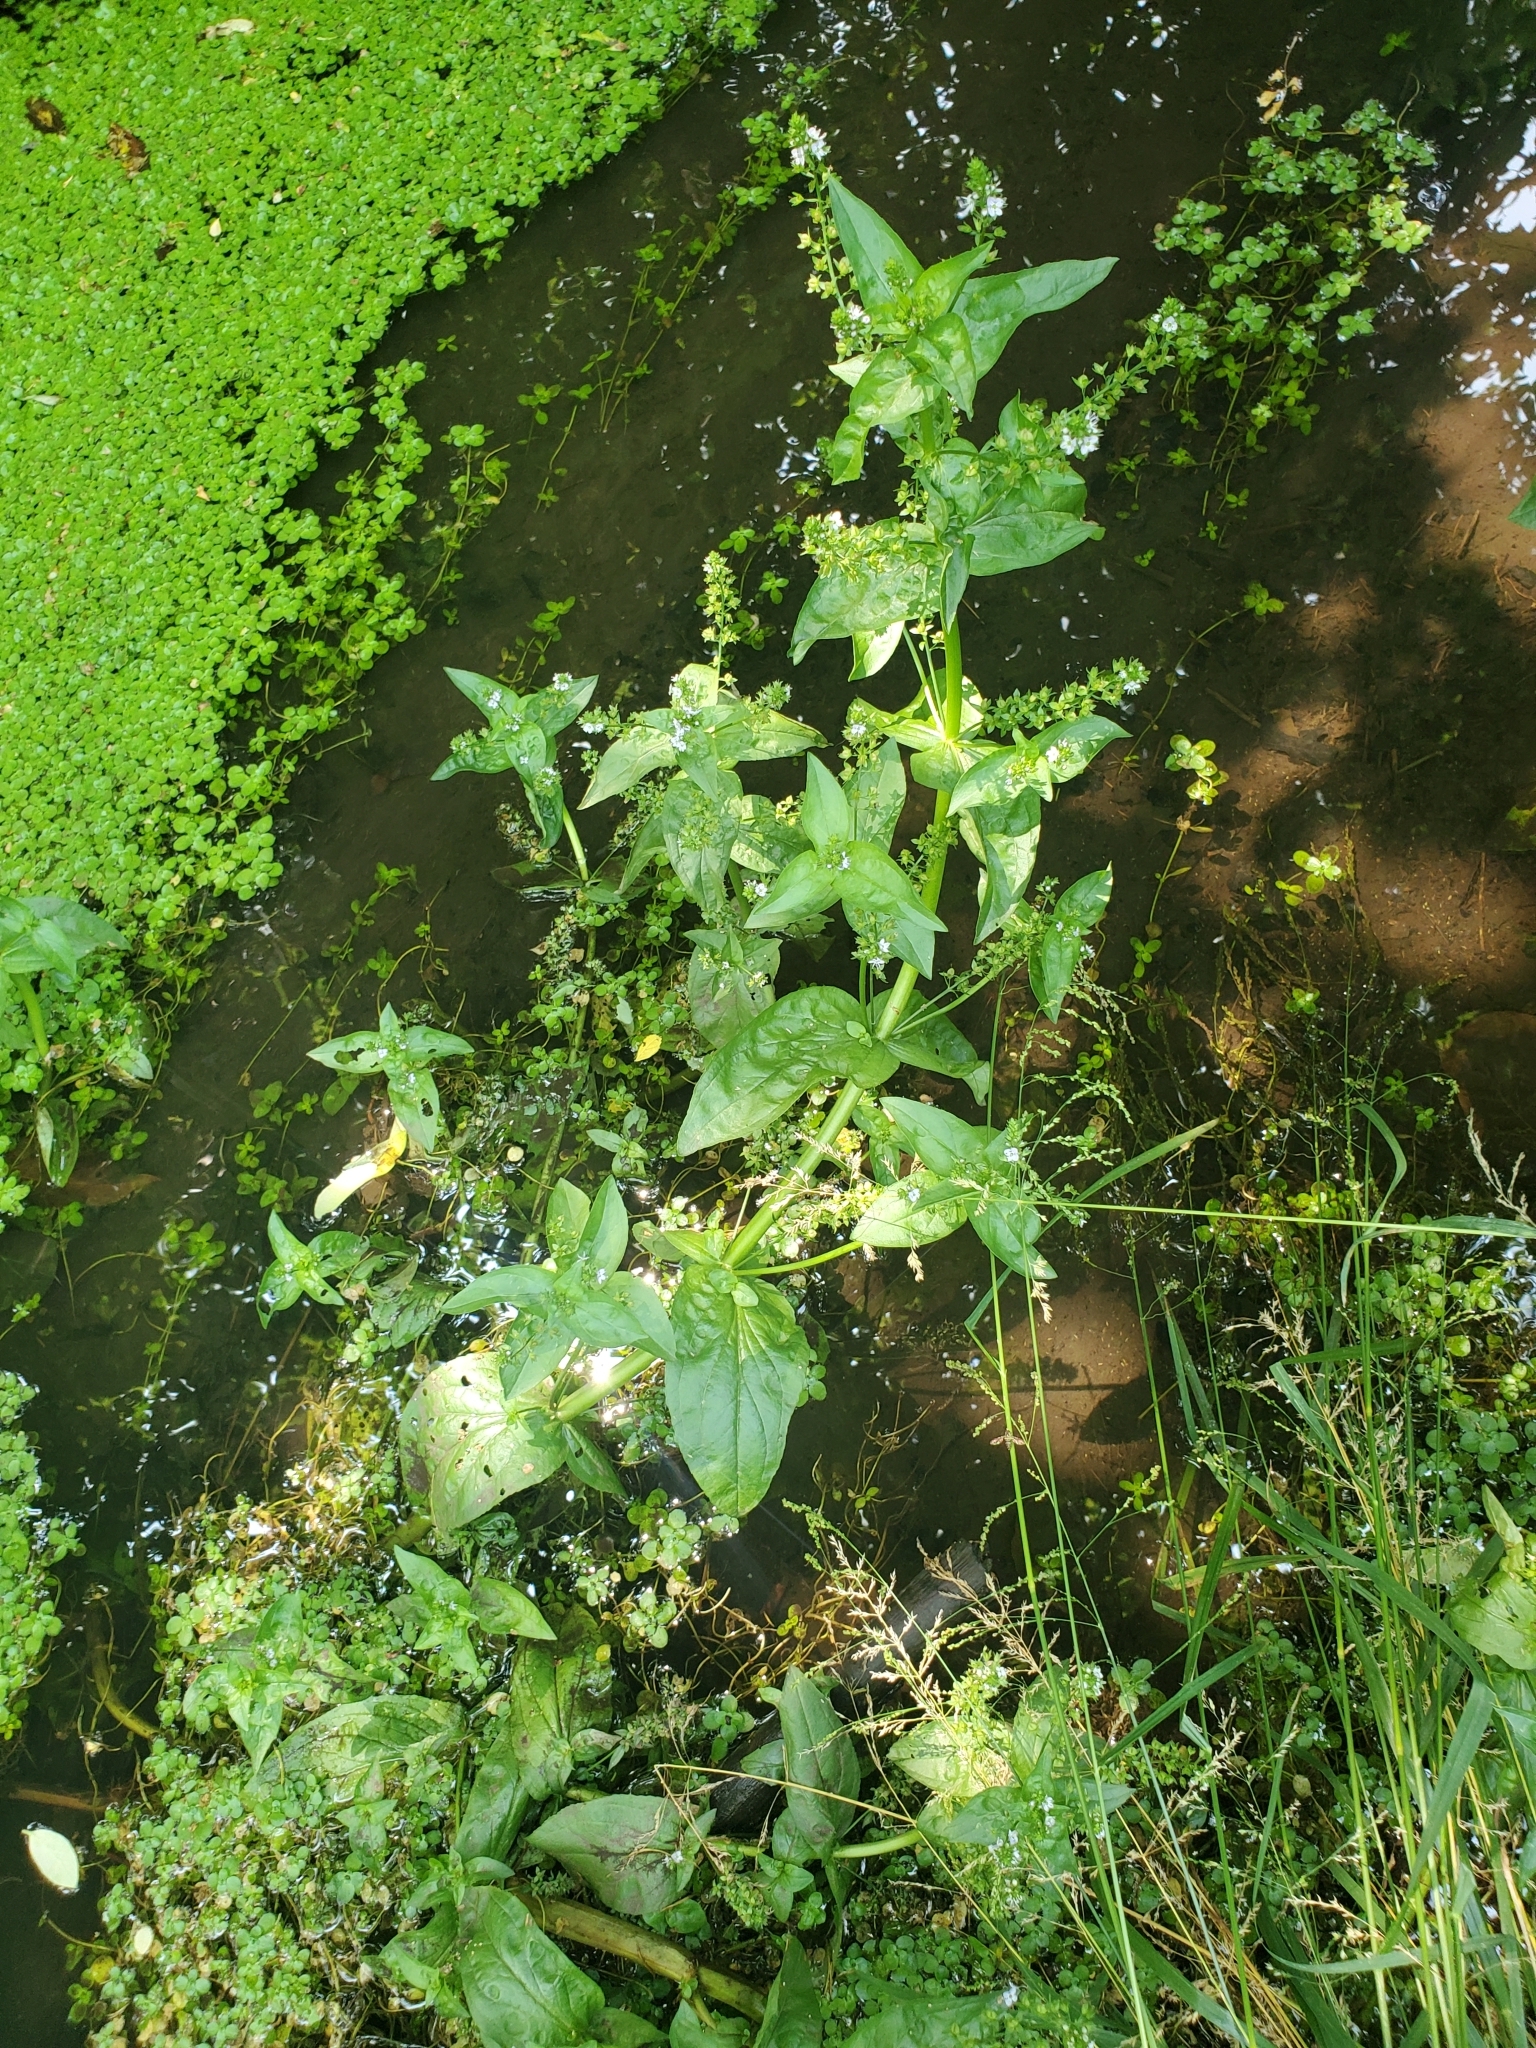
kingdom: Plantae
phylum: Tracheophyta
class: Magnoliopsida
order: Lamiales
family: Plantaginaceae
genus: Veronica
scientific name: Veronica anagallis-aquatica
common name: Water speedwell
